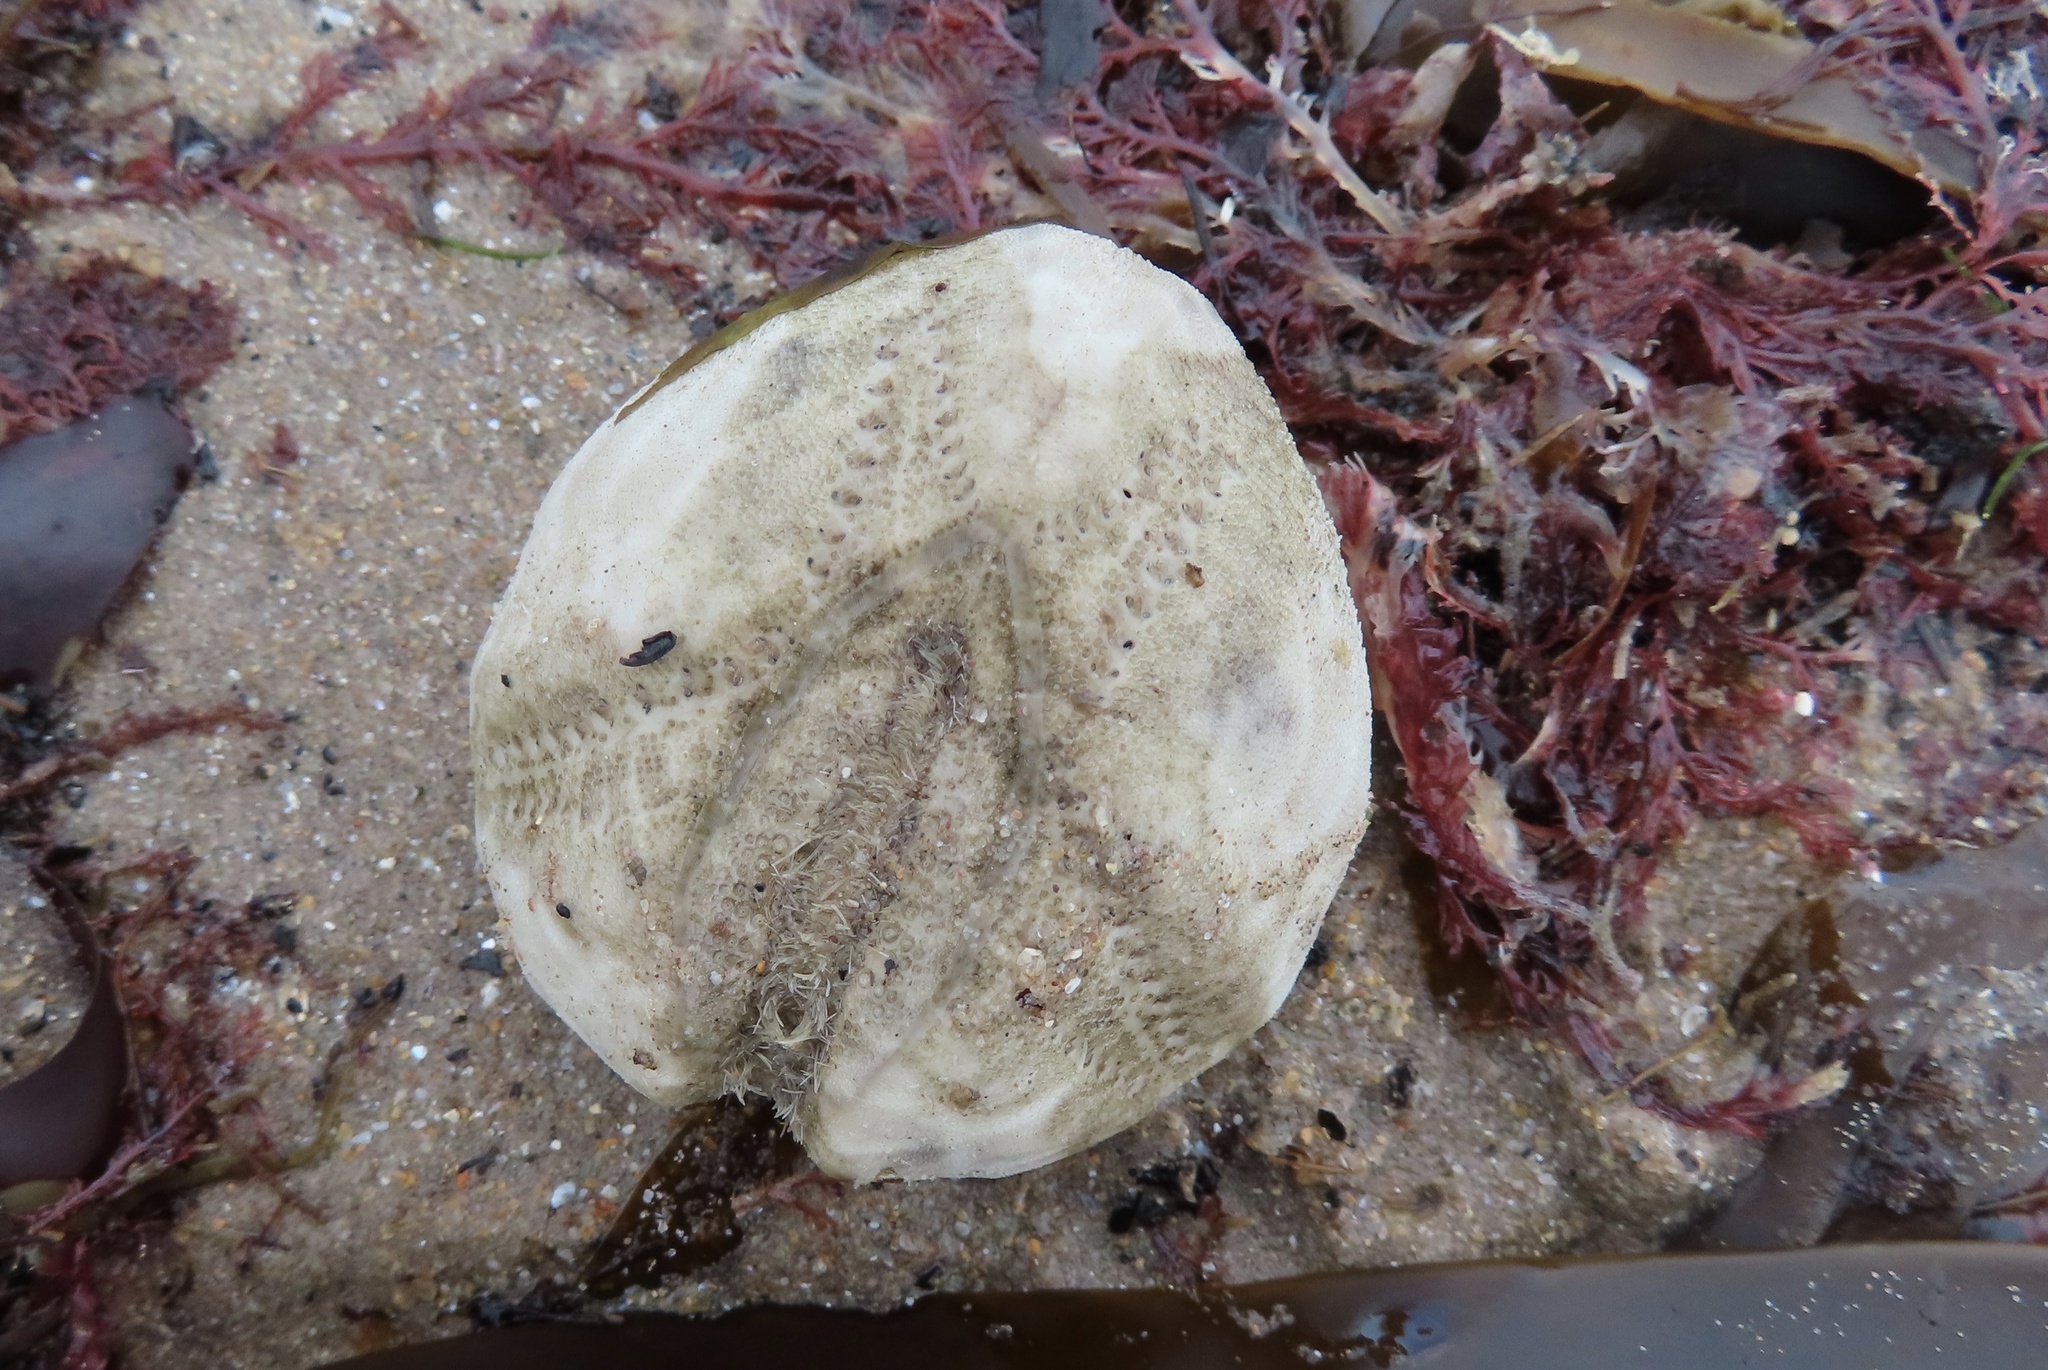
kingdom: Animalia
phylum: Echinodermata
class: Echinoidea
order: Spatangoida
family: Loveniidae
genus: Echinocardium
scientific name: Echinocardium cordatum
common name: Heart-urchin
